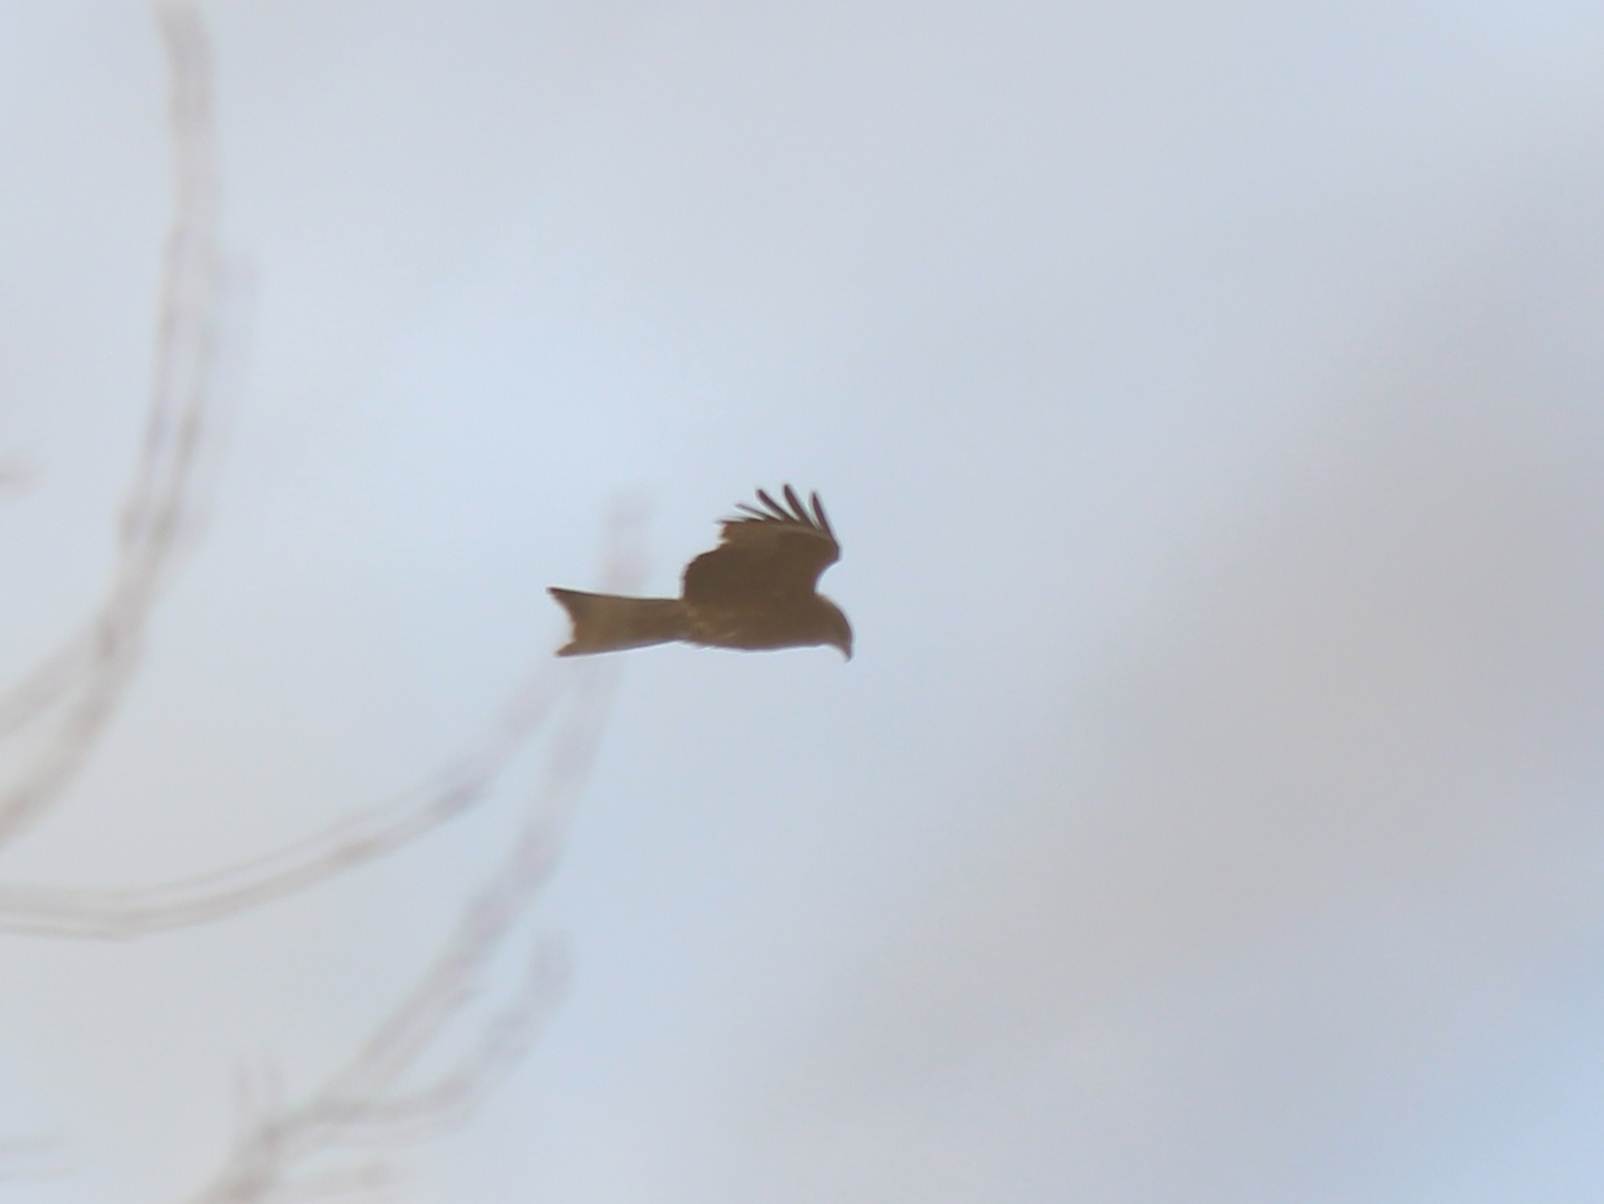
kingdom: Animalia
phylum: Chordata
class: Aves
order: Accipitriformes
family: Accipitridae
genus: Milvus
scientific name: Milvus migrans
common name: Black kite
